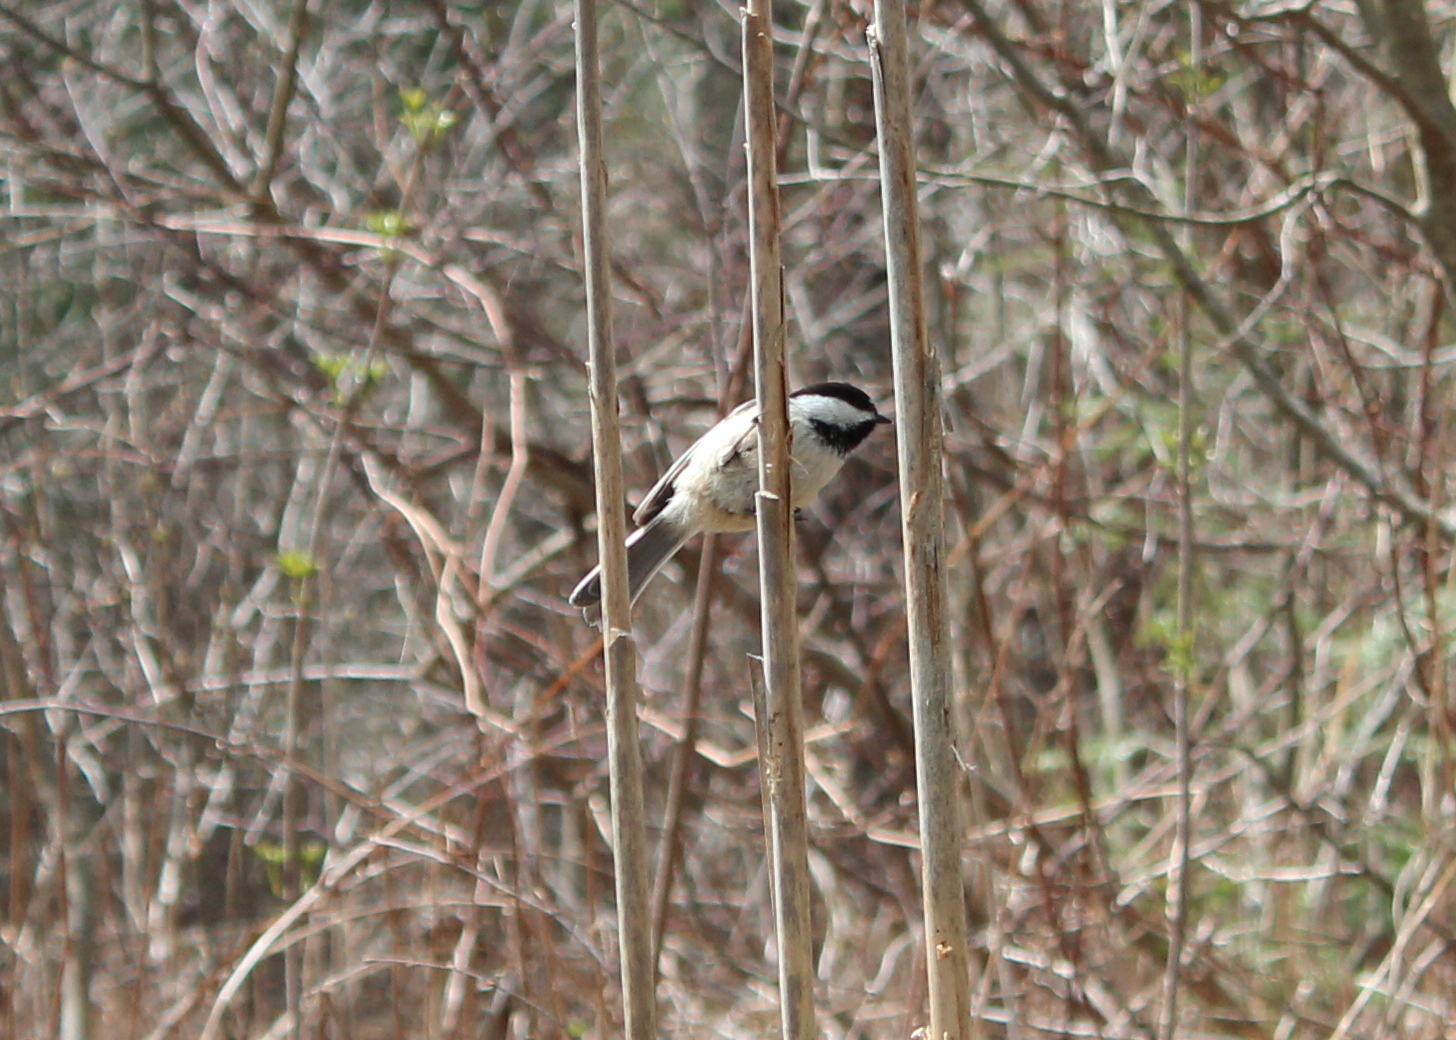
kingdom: Animalia
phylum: Chordata
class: Aves
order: Passeriformes
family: Paridae
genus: Poecile
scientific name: Poecile atricapillus
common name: Black-capped chickadee
